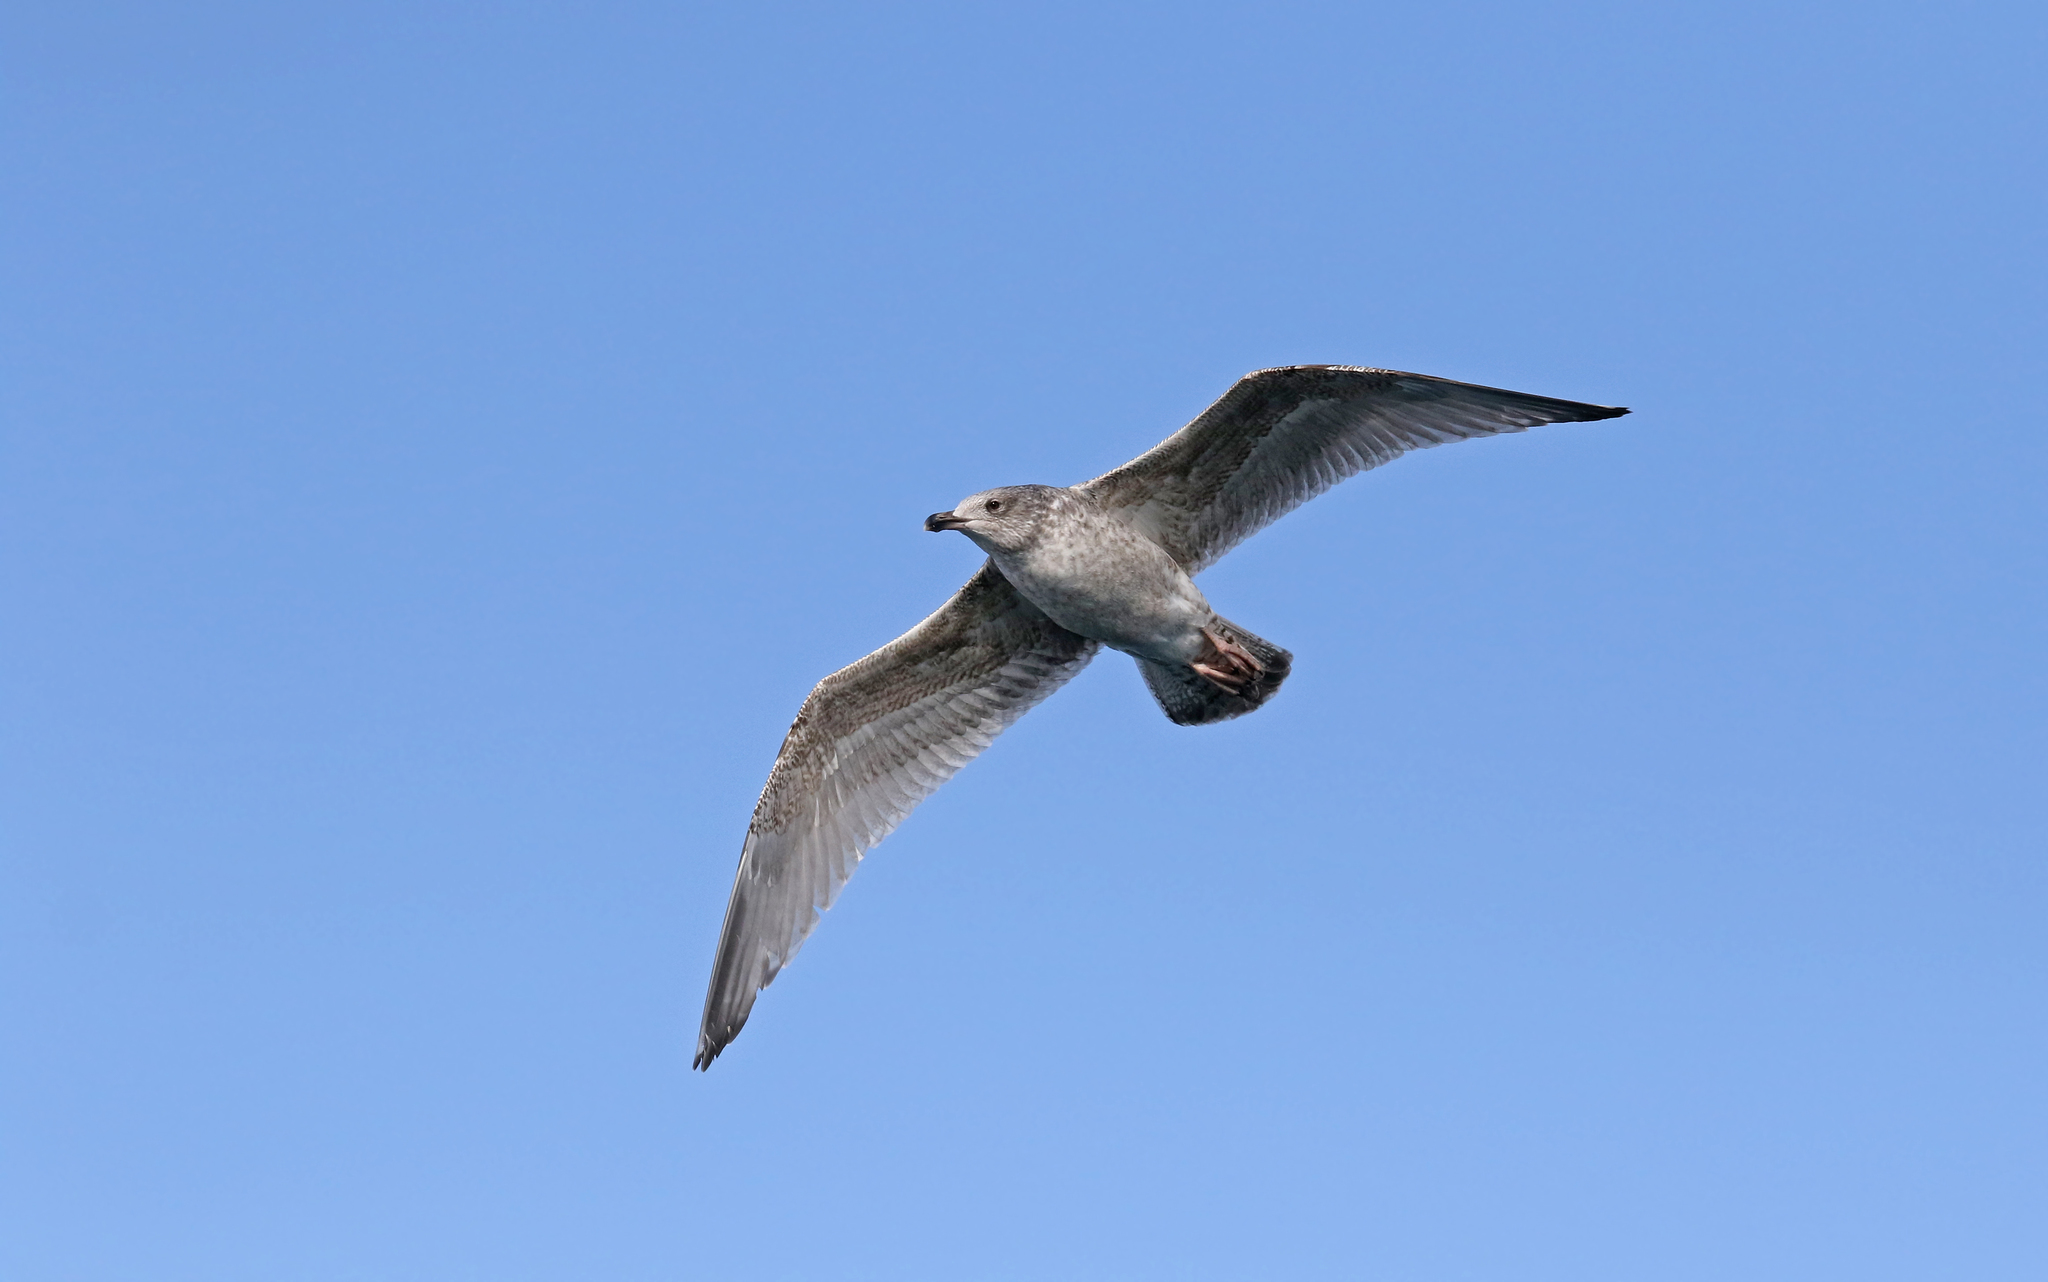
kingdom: Animalia
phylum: Chordata
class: Aves
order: Charadriiformes
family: Laridae
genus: Larus
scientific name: Larus marinus
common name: Great black-backed gull
